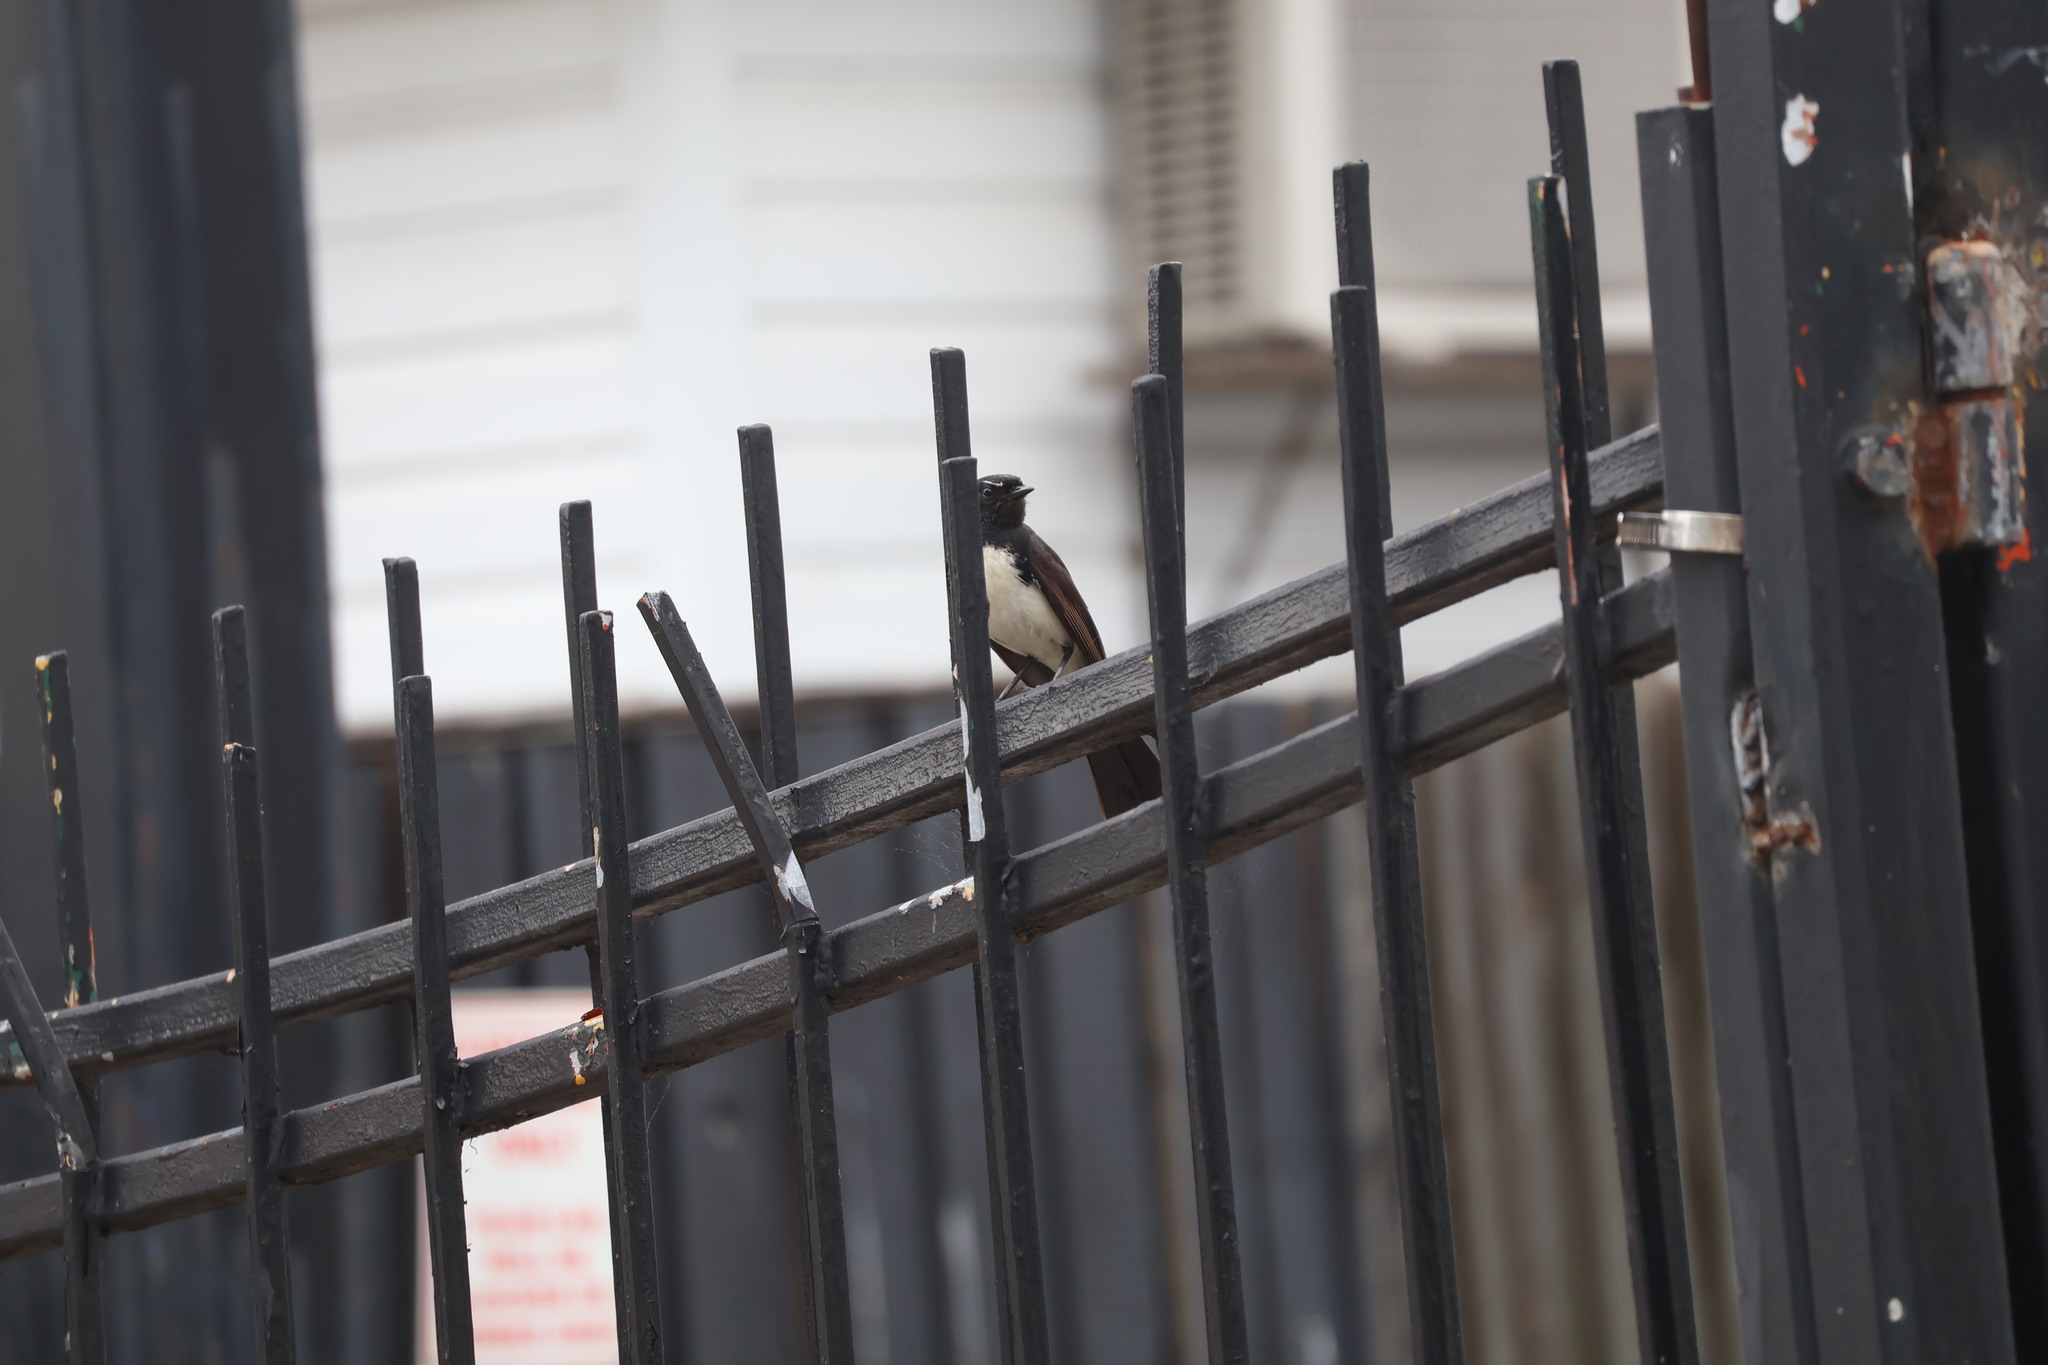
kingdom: Animalia
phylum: Chordata
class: Aves
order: Passeriformes
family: Rhipiduridae
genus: Rhipidura
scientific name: Rhipidura leucophrys
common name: Willie wagtail
